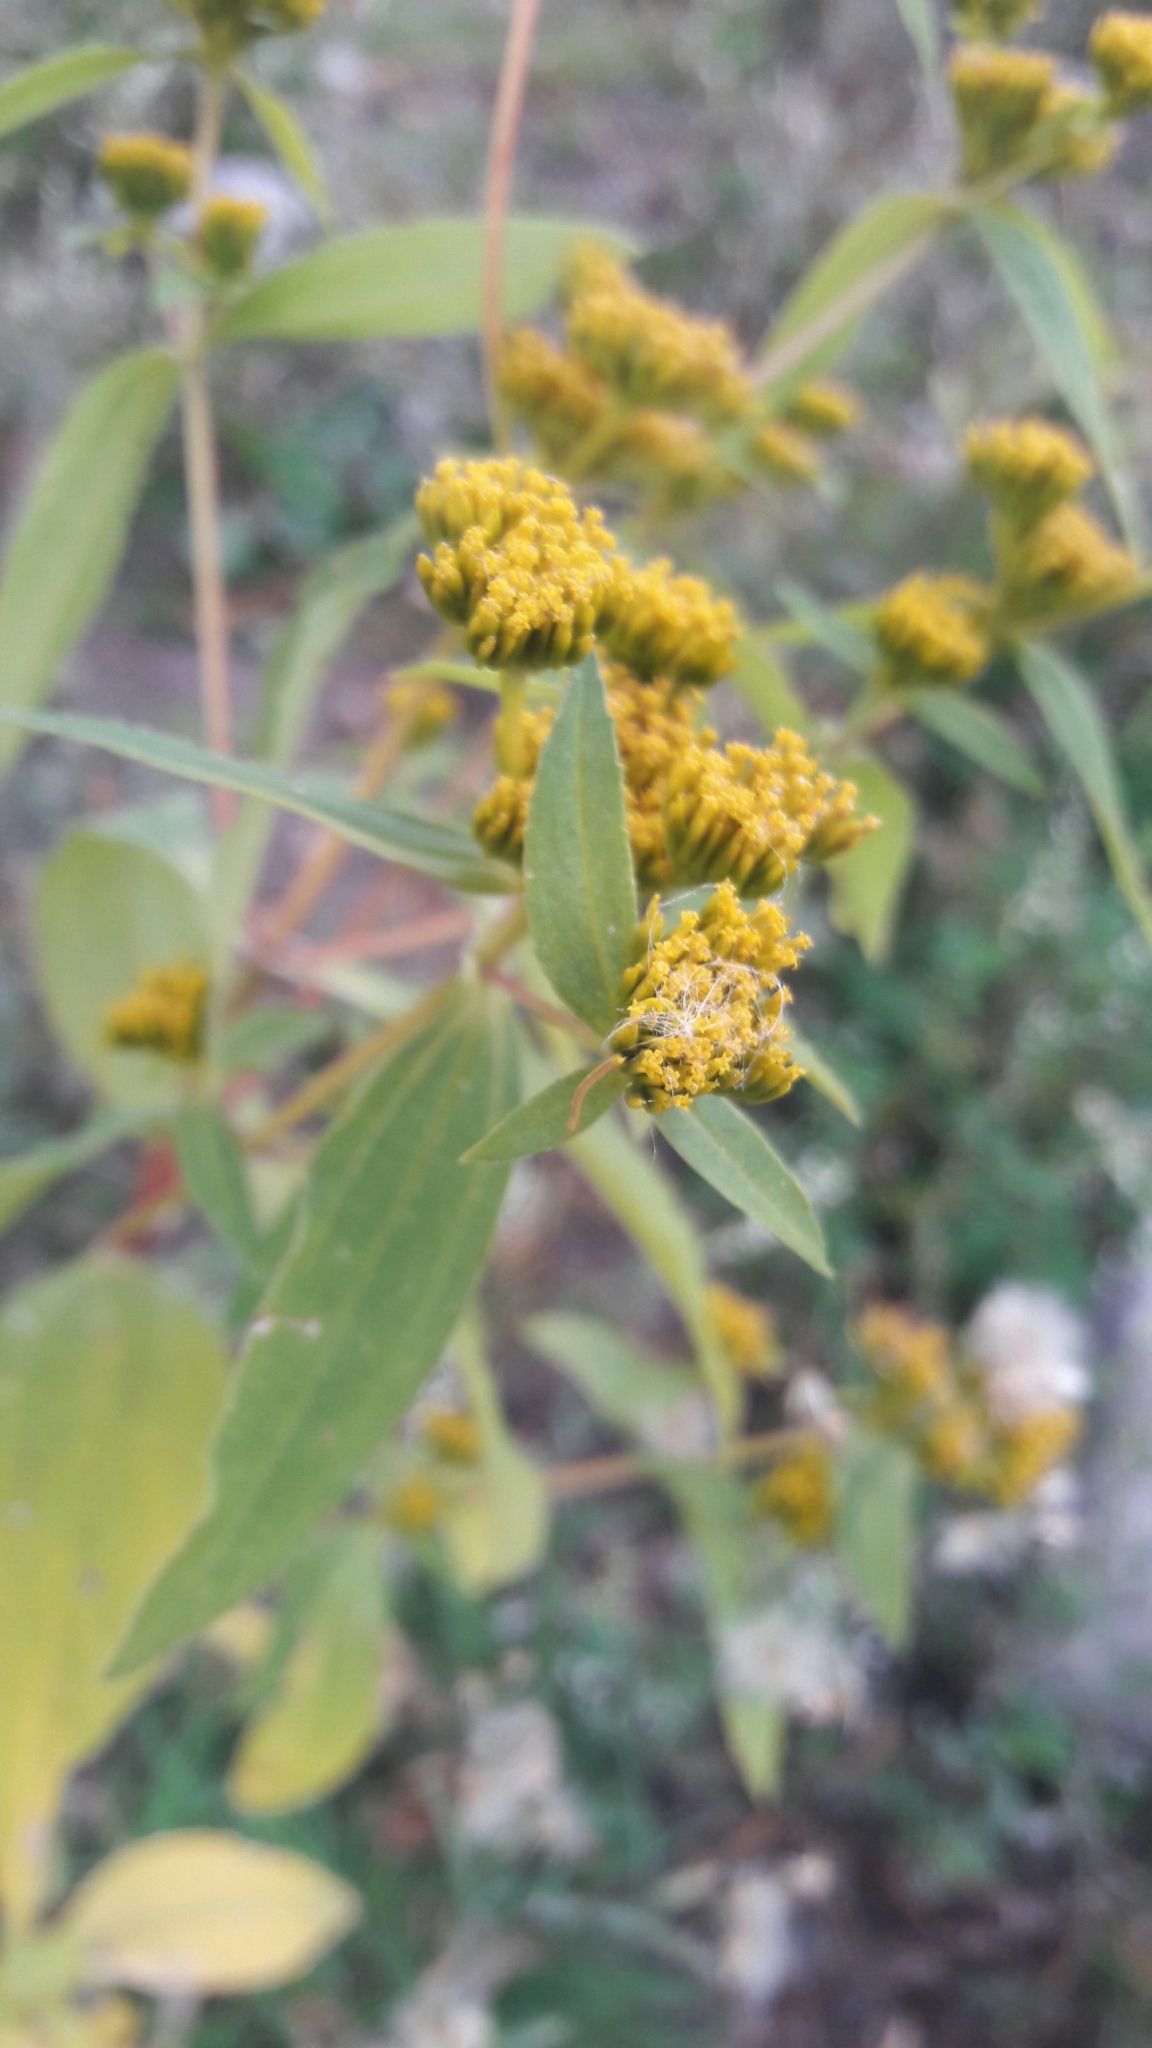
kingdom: Plantae
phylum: Tracheophyta
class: Magnoliopsida
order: Asterales
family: Asteraceae
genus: Flaveria
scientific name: Flaveria bidentis
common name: Coastal plain yellowtops
